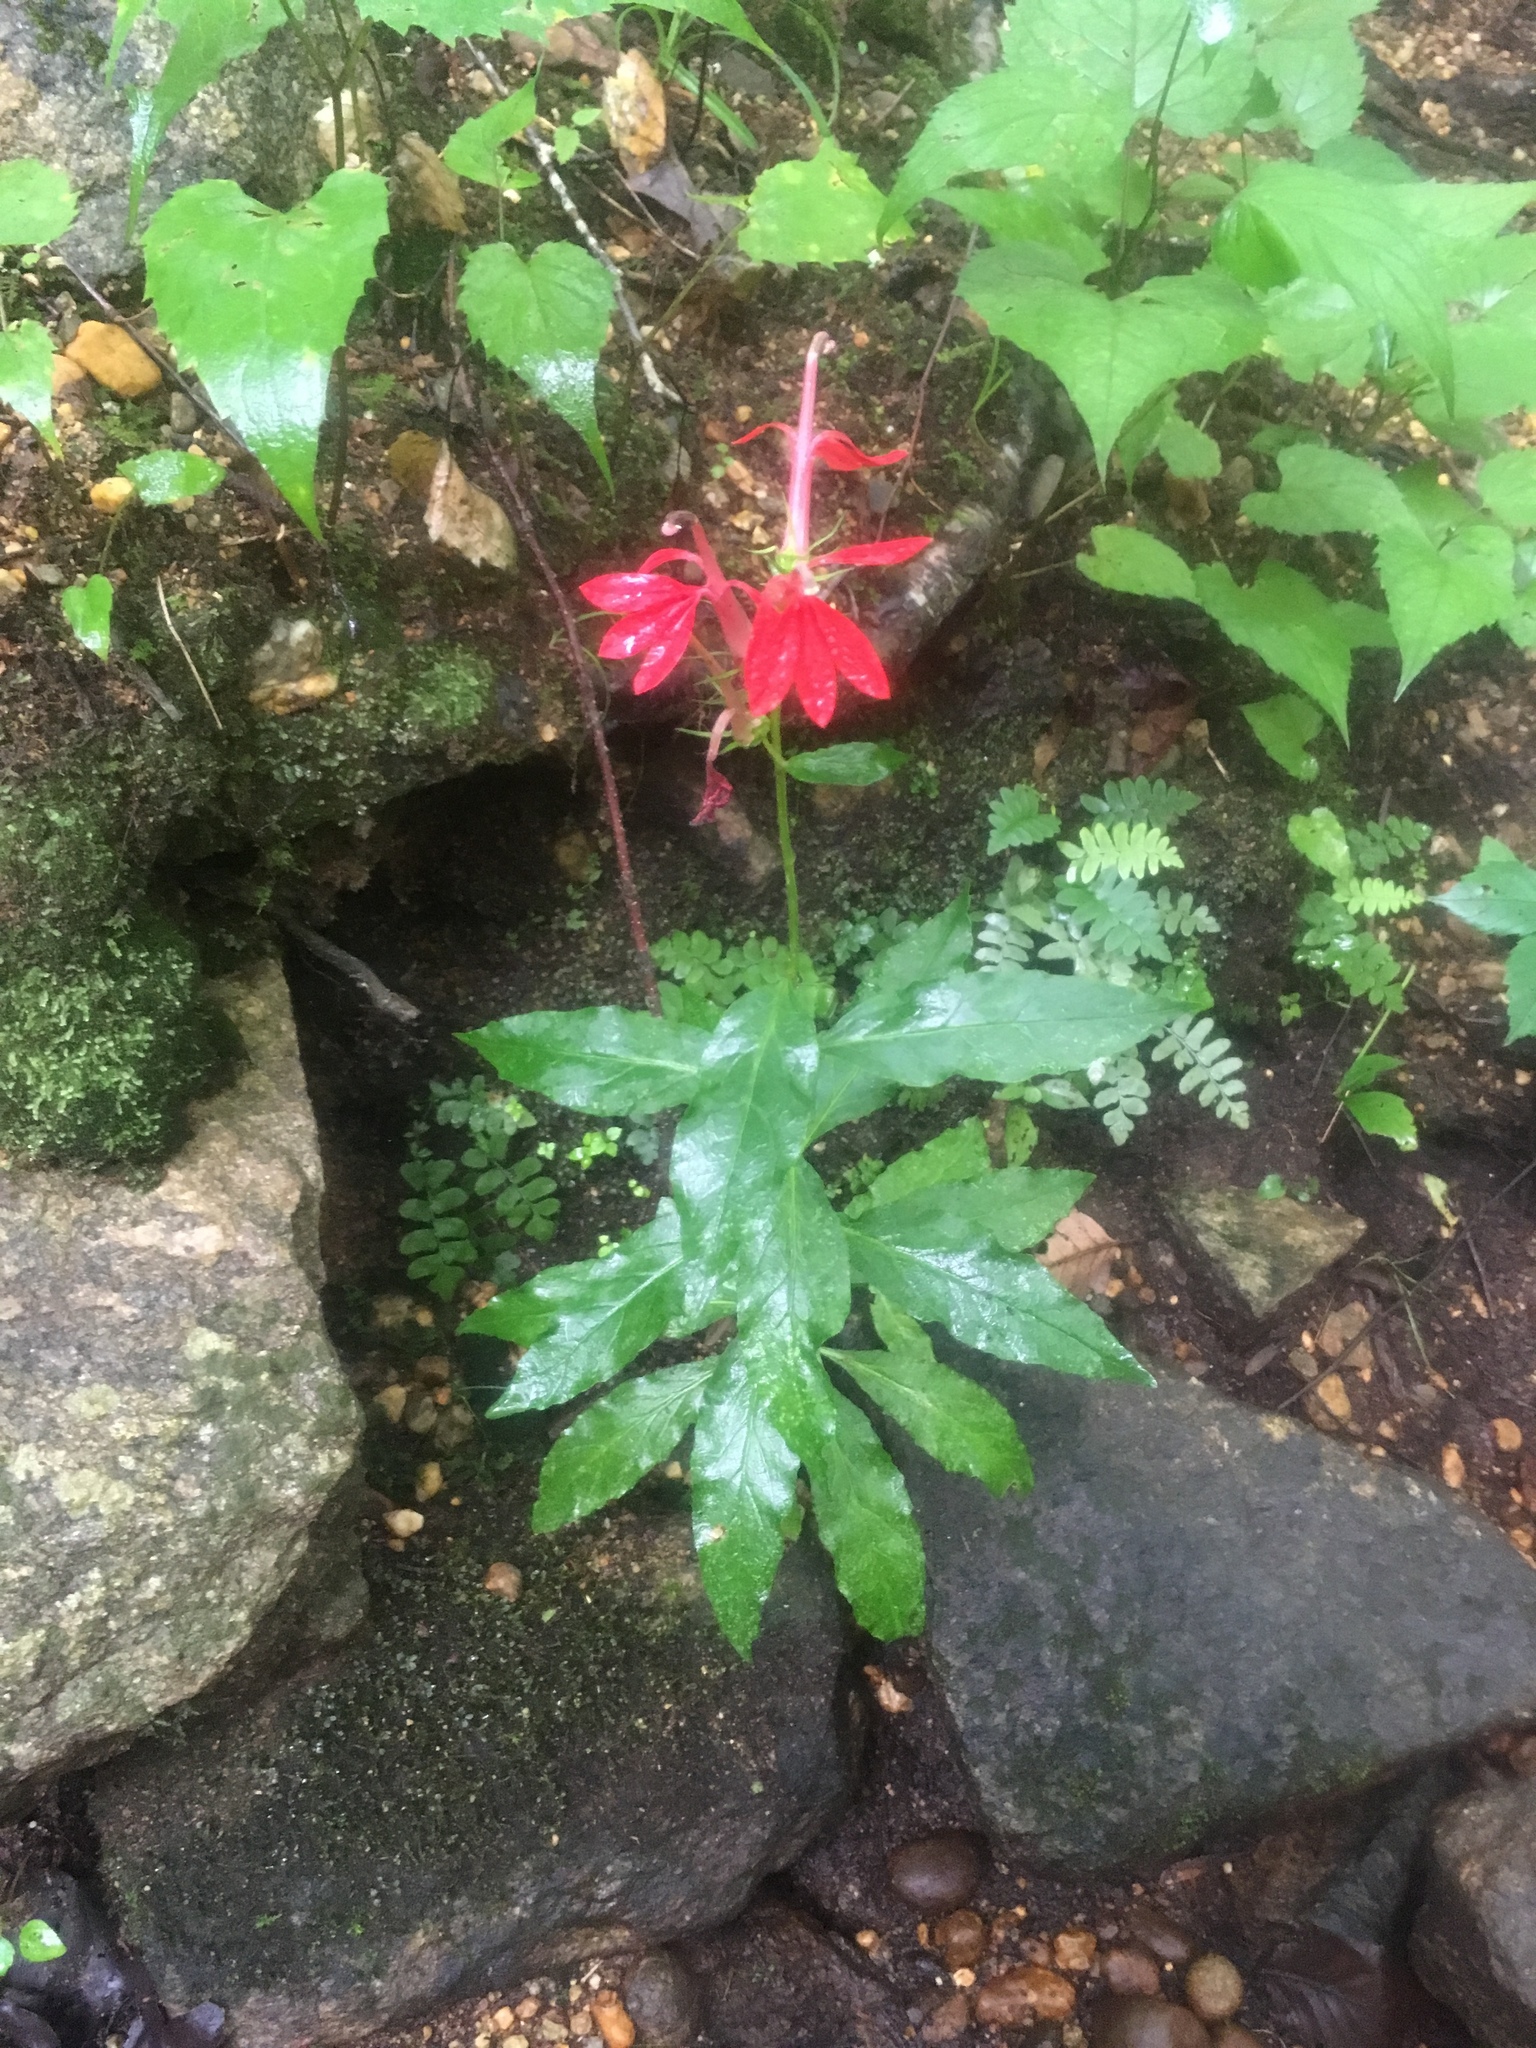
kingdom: Plantae
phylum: Tracheophyta
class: Magnoliopsida
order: Asterales
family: Campanulaceae
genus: Lobelia
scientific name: Lobelia cardinalis
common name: Cardinal flower
